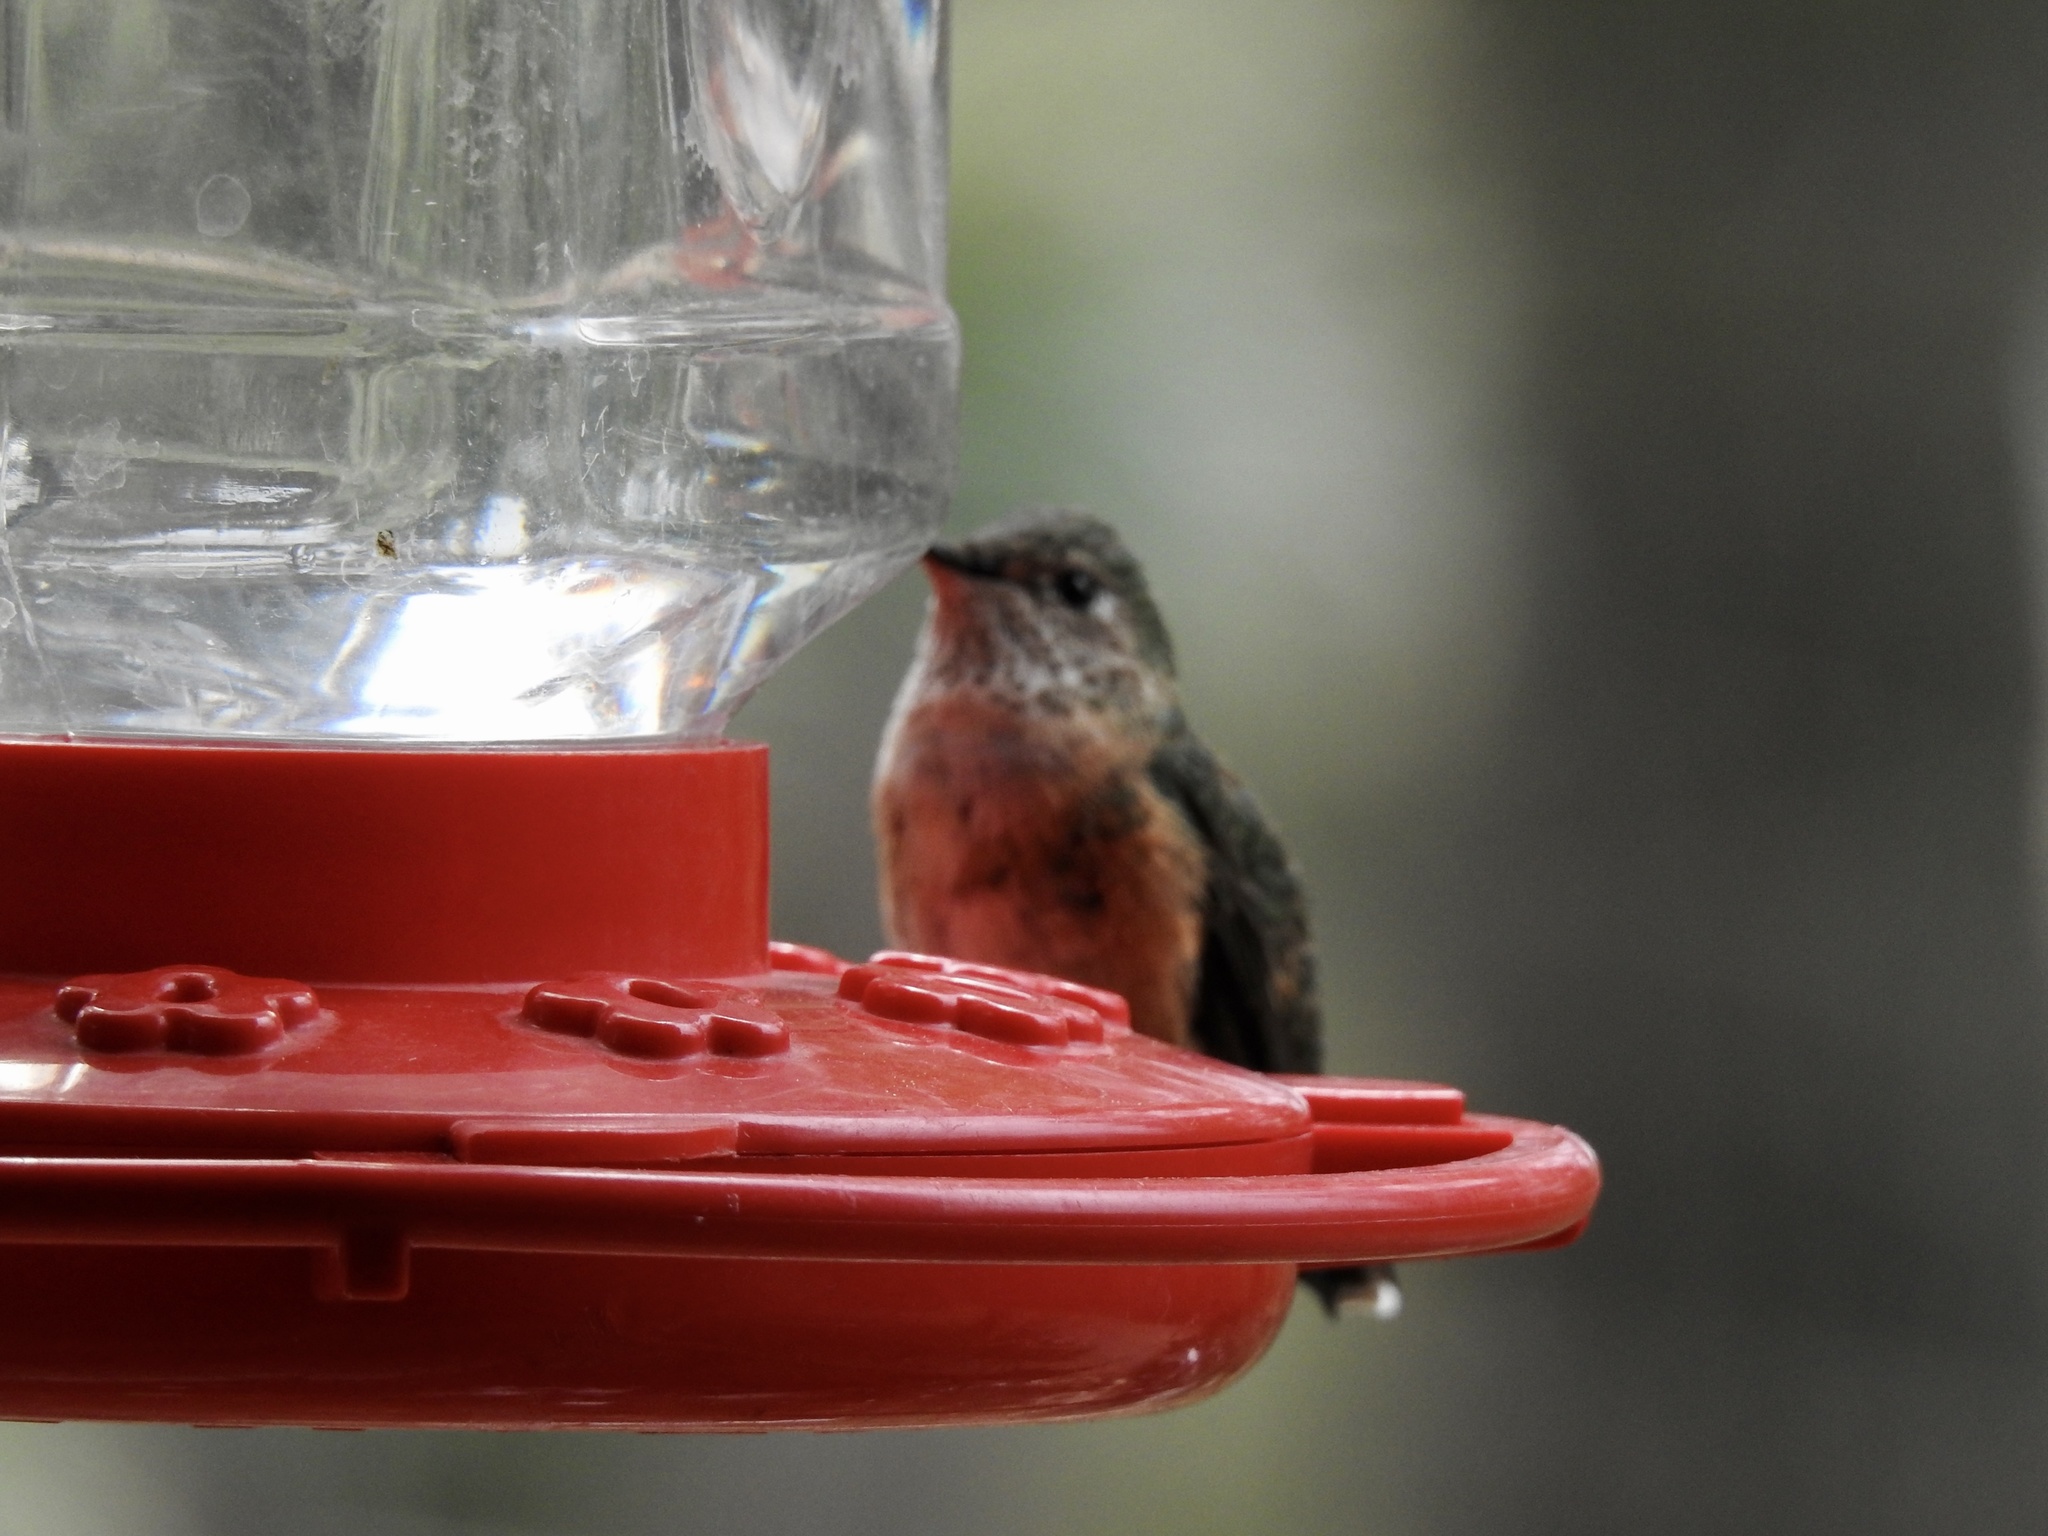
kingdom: Animalia
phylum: Chordata
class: Aves
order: Apodiformes
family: Trochilidae
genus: Selasphorus
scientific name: Selasphorus calliope
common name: Calliope hummingbird
